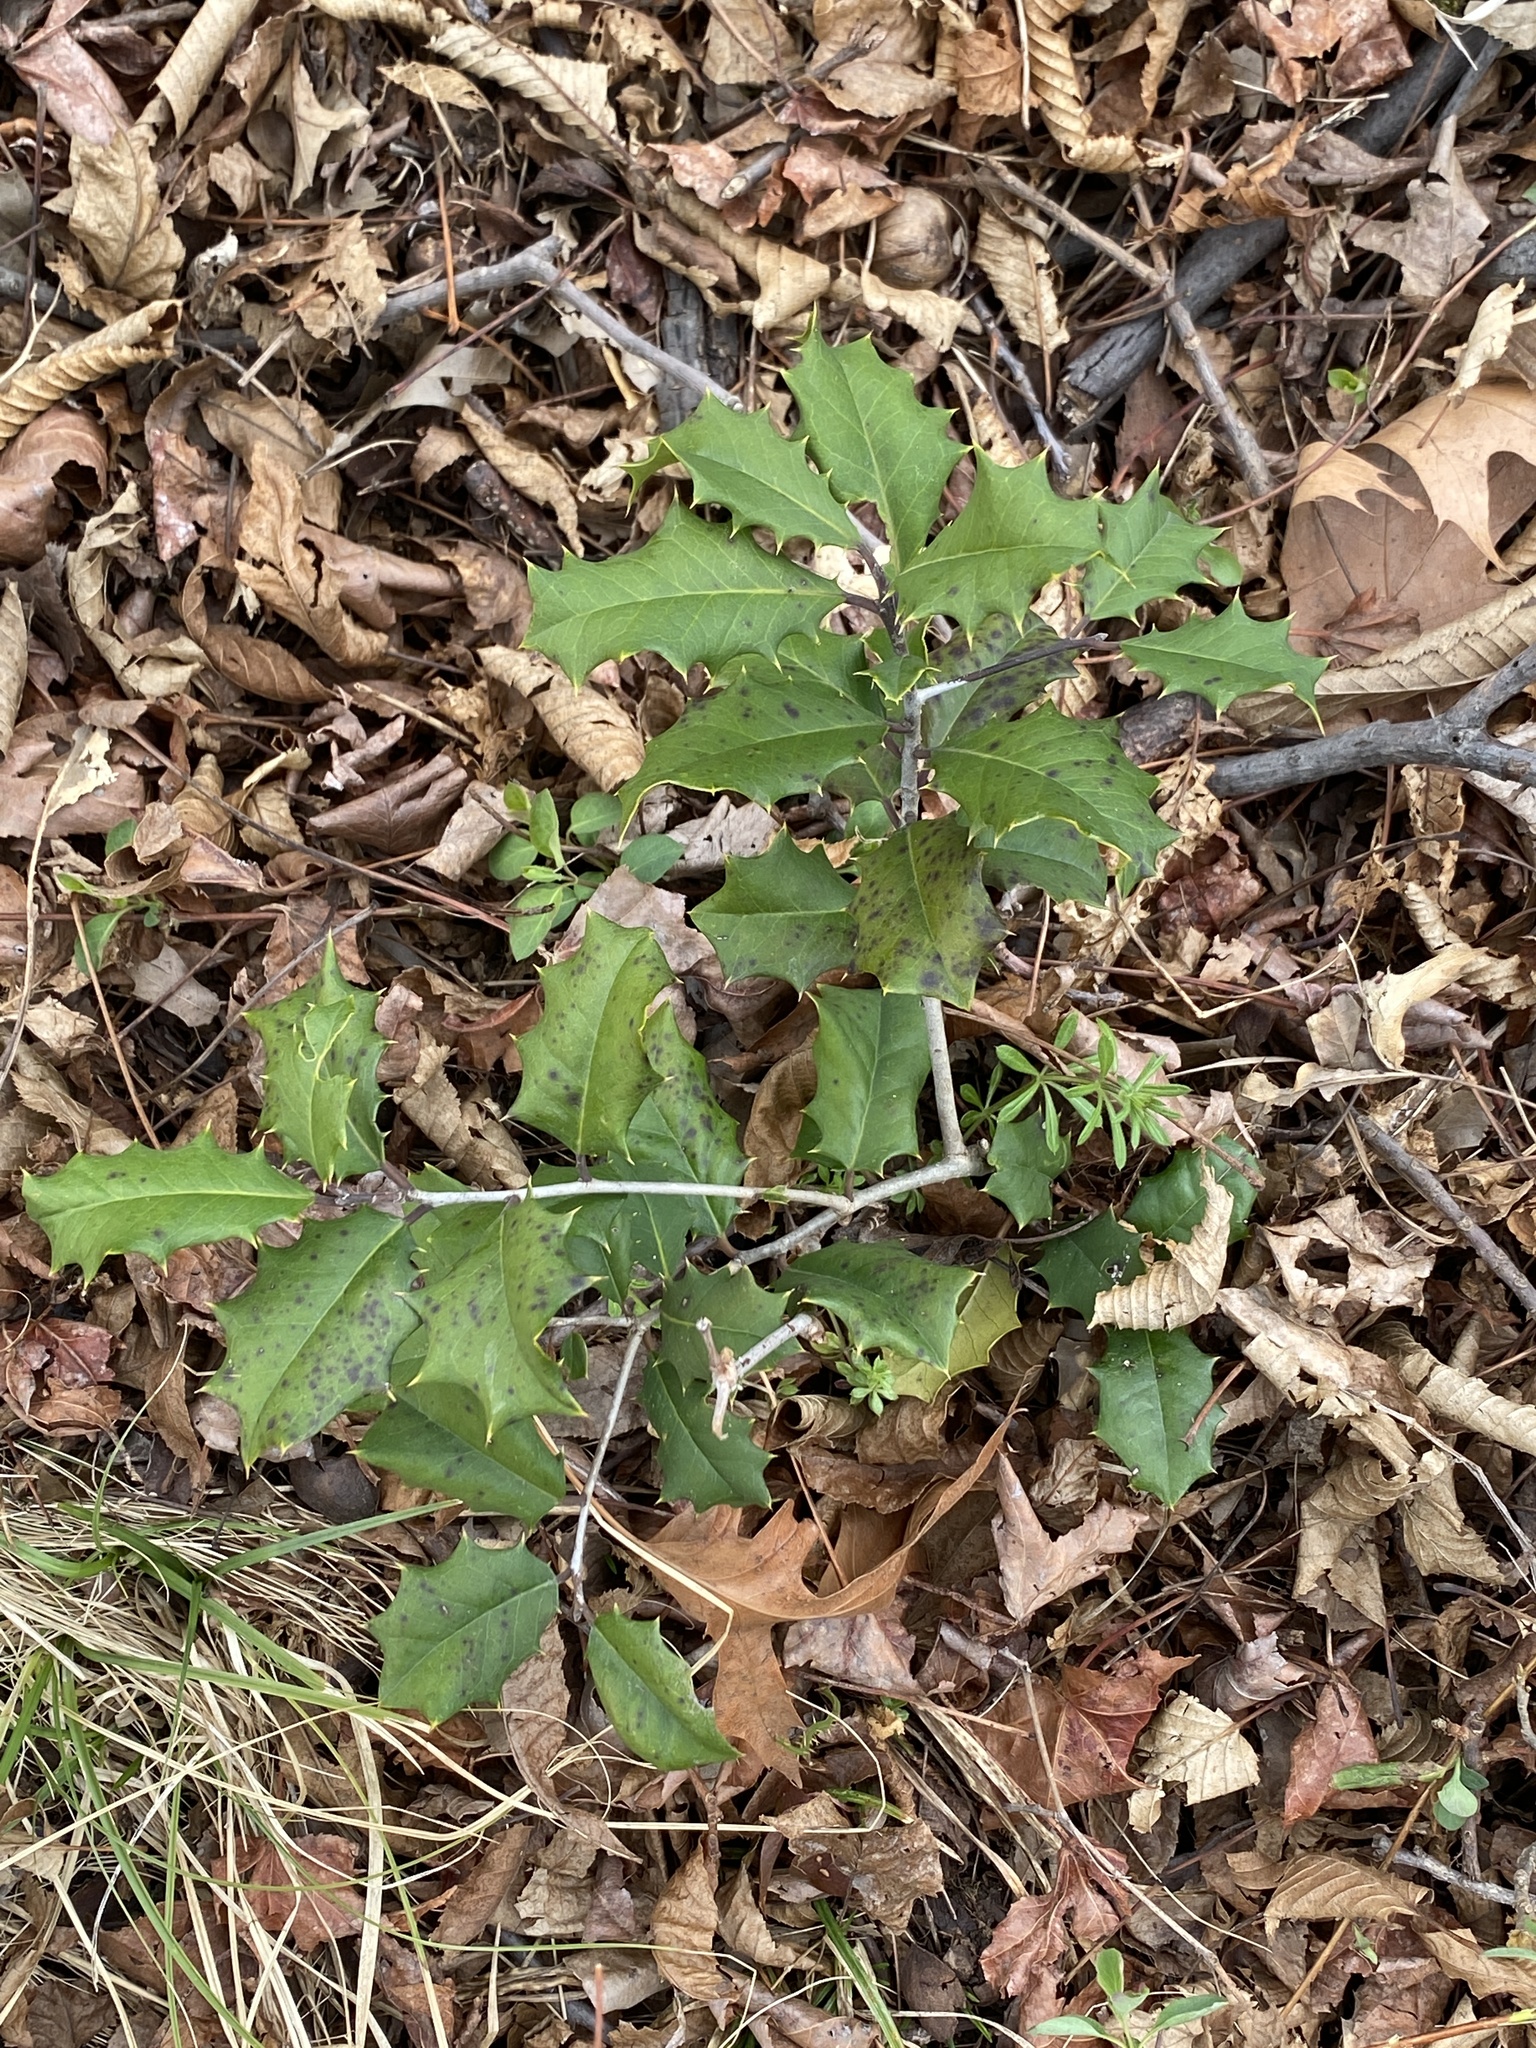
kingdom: Plantae
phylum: Tracheophyta
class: Magnoliopsida
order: Aquifoliales
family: Aquifoliaceae
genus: Ilex
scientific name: Ilex opaca
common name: American holly
